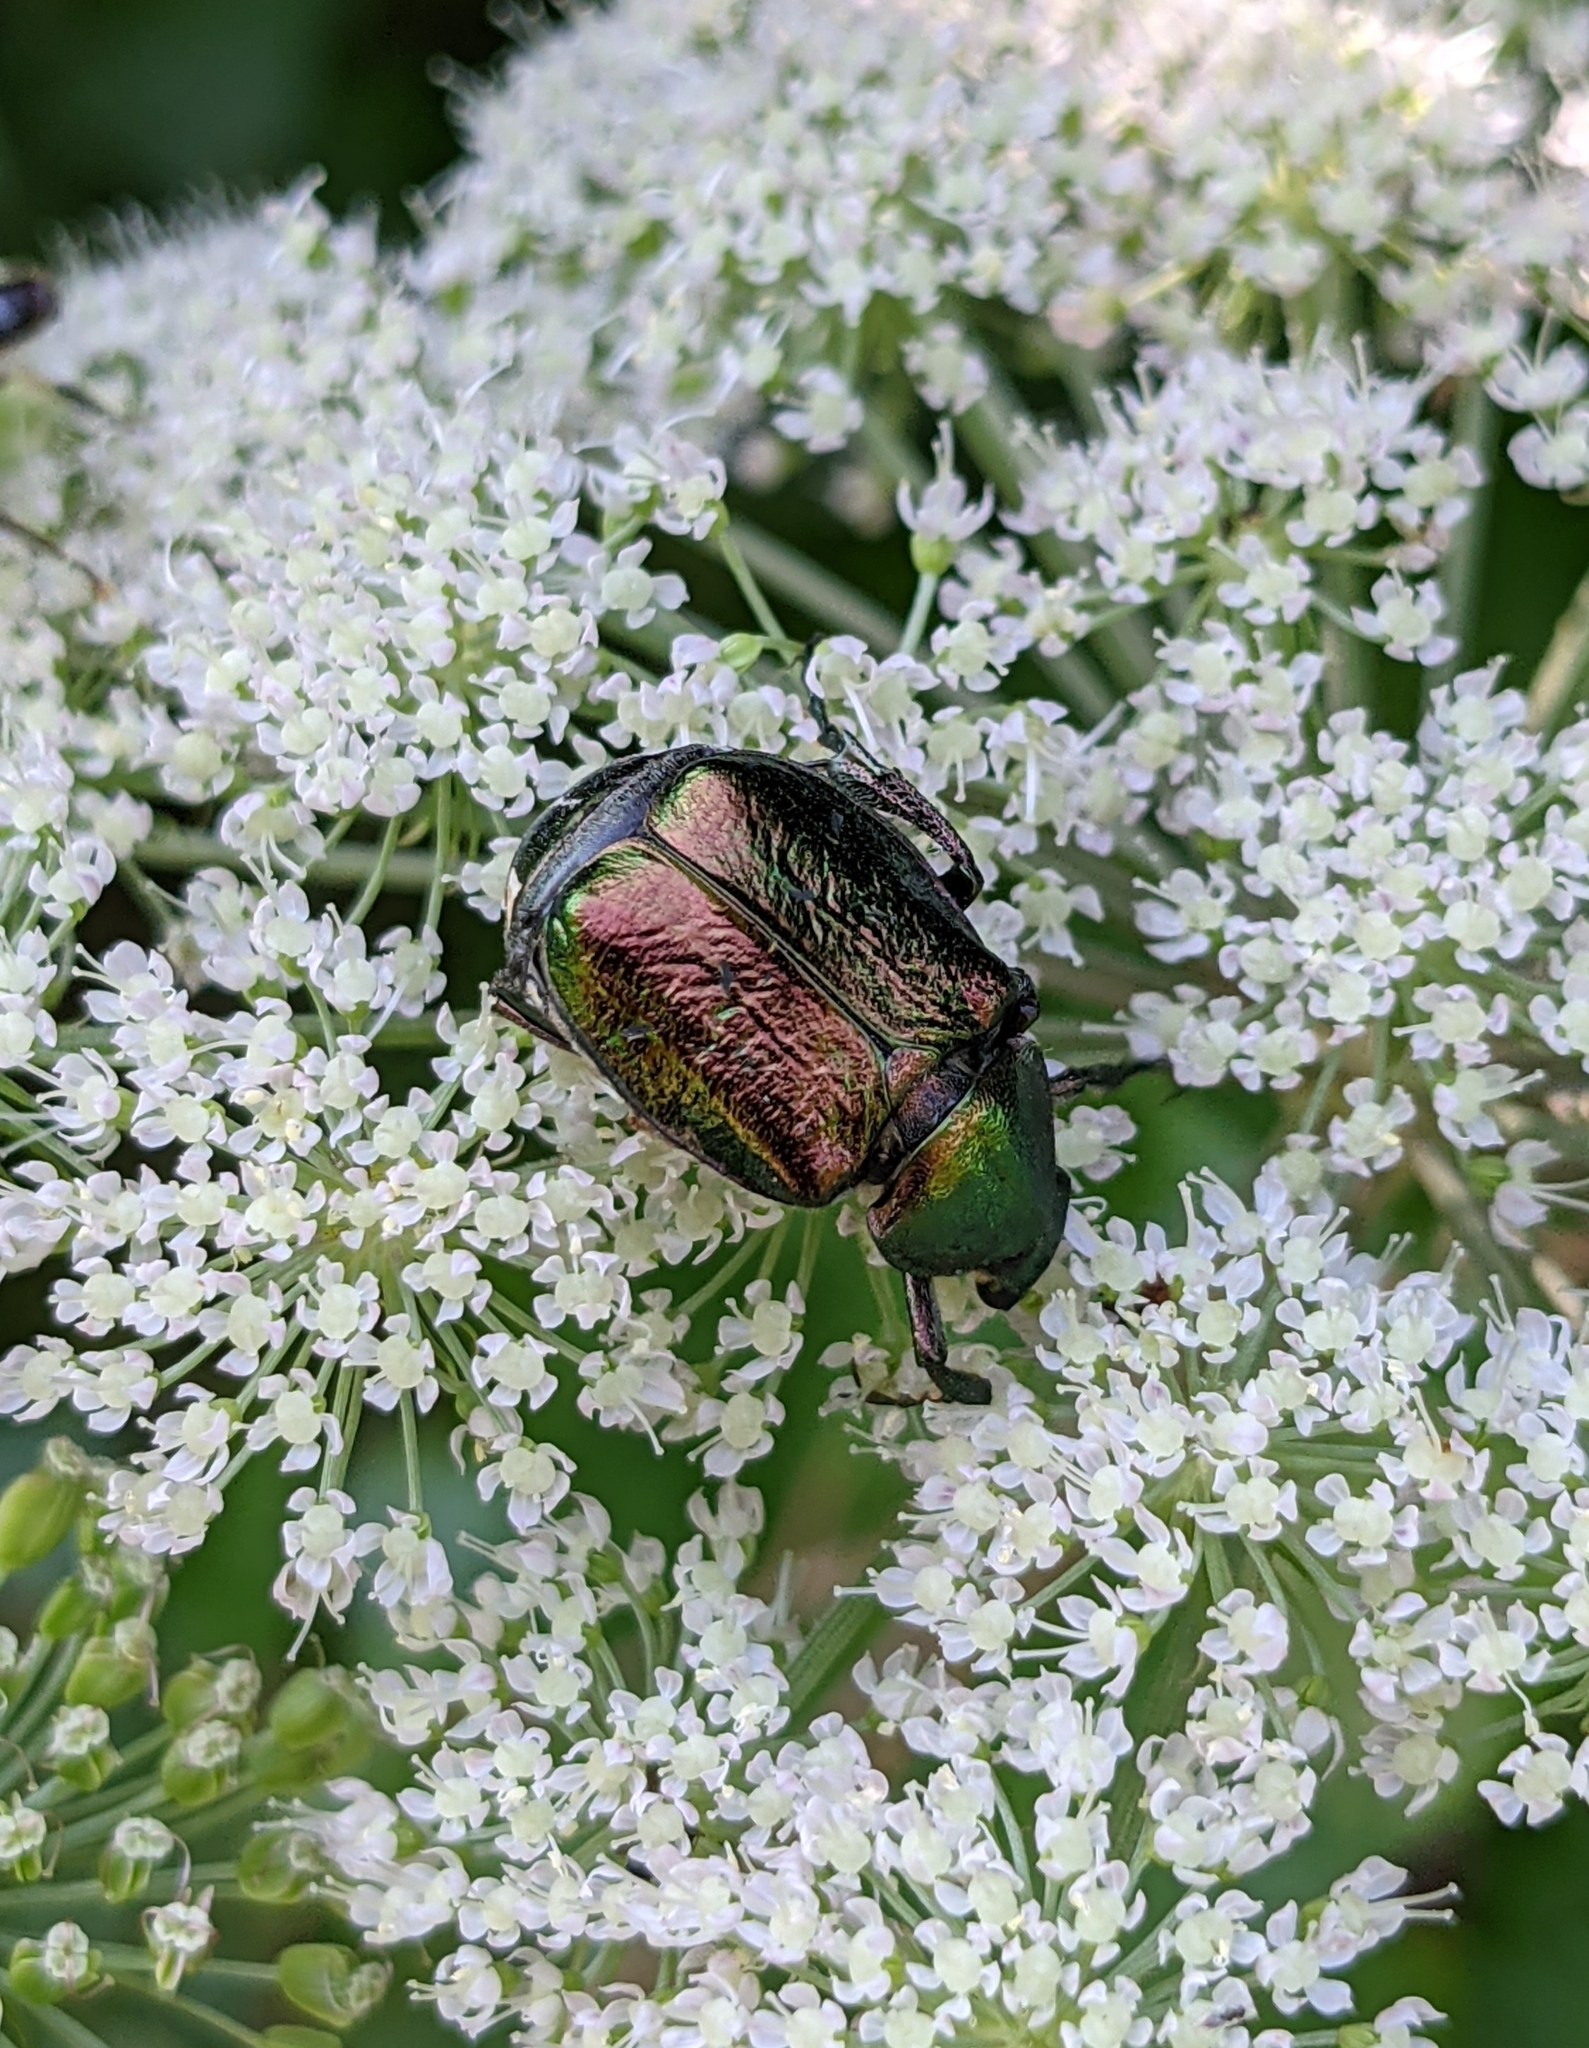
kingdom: Animalia
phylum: Arthropoda
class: Insecta
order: Coleoptera
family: Scarabaeidae
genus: Gnorimus
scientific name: Gnorimus nobilis
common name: Noble chafer
